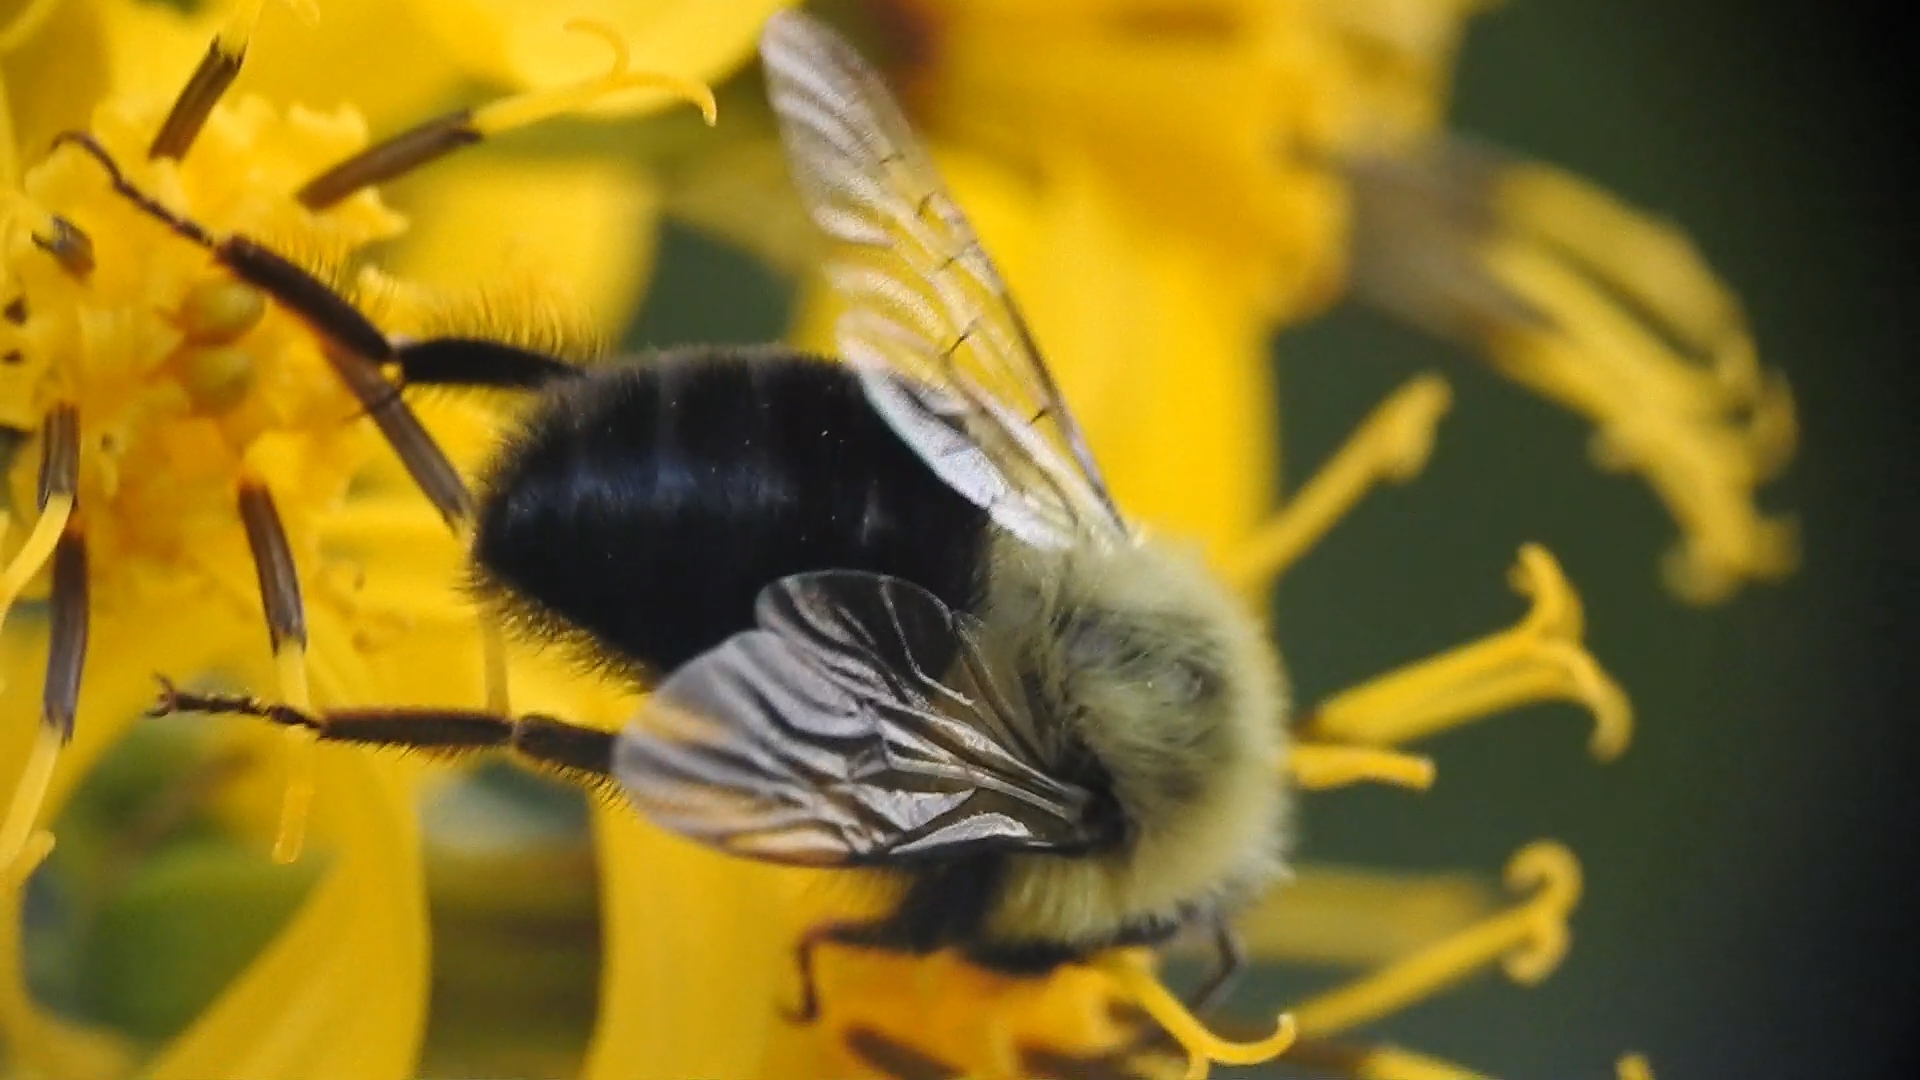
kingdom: Animalia
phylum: Arthropoda
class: Insecta
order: Hymenoptera
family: Apidae
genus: Bombus
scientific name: Bombus impatiens
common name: Common eastern bumble bee
